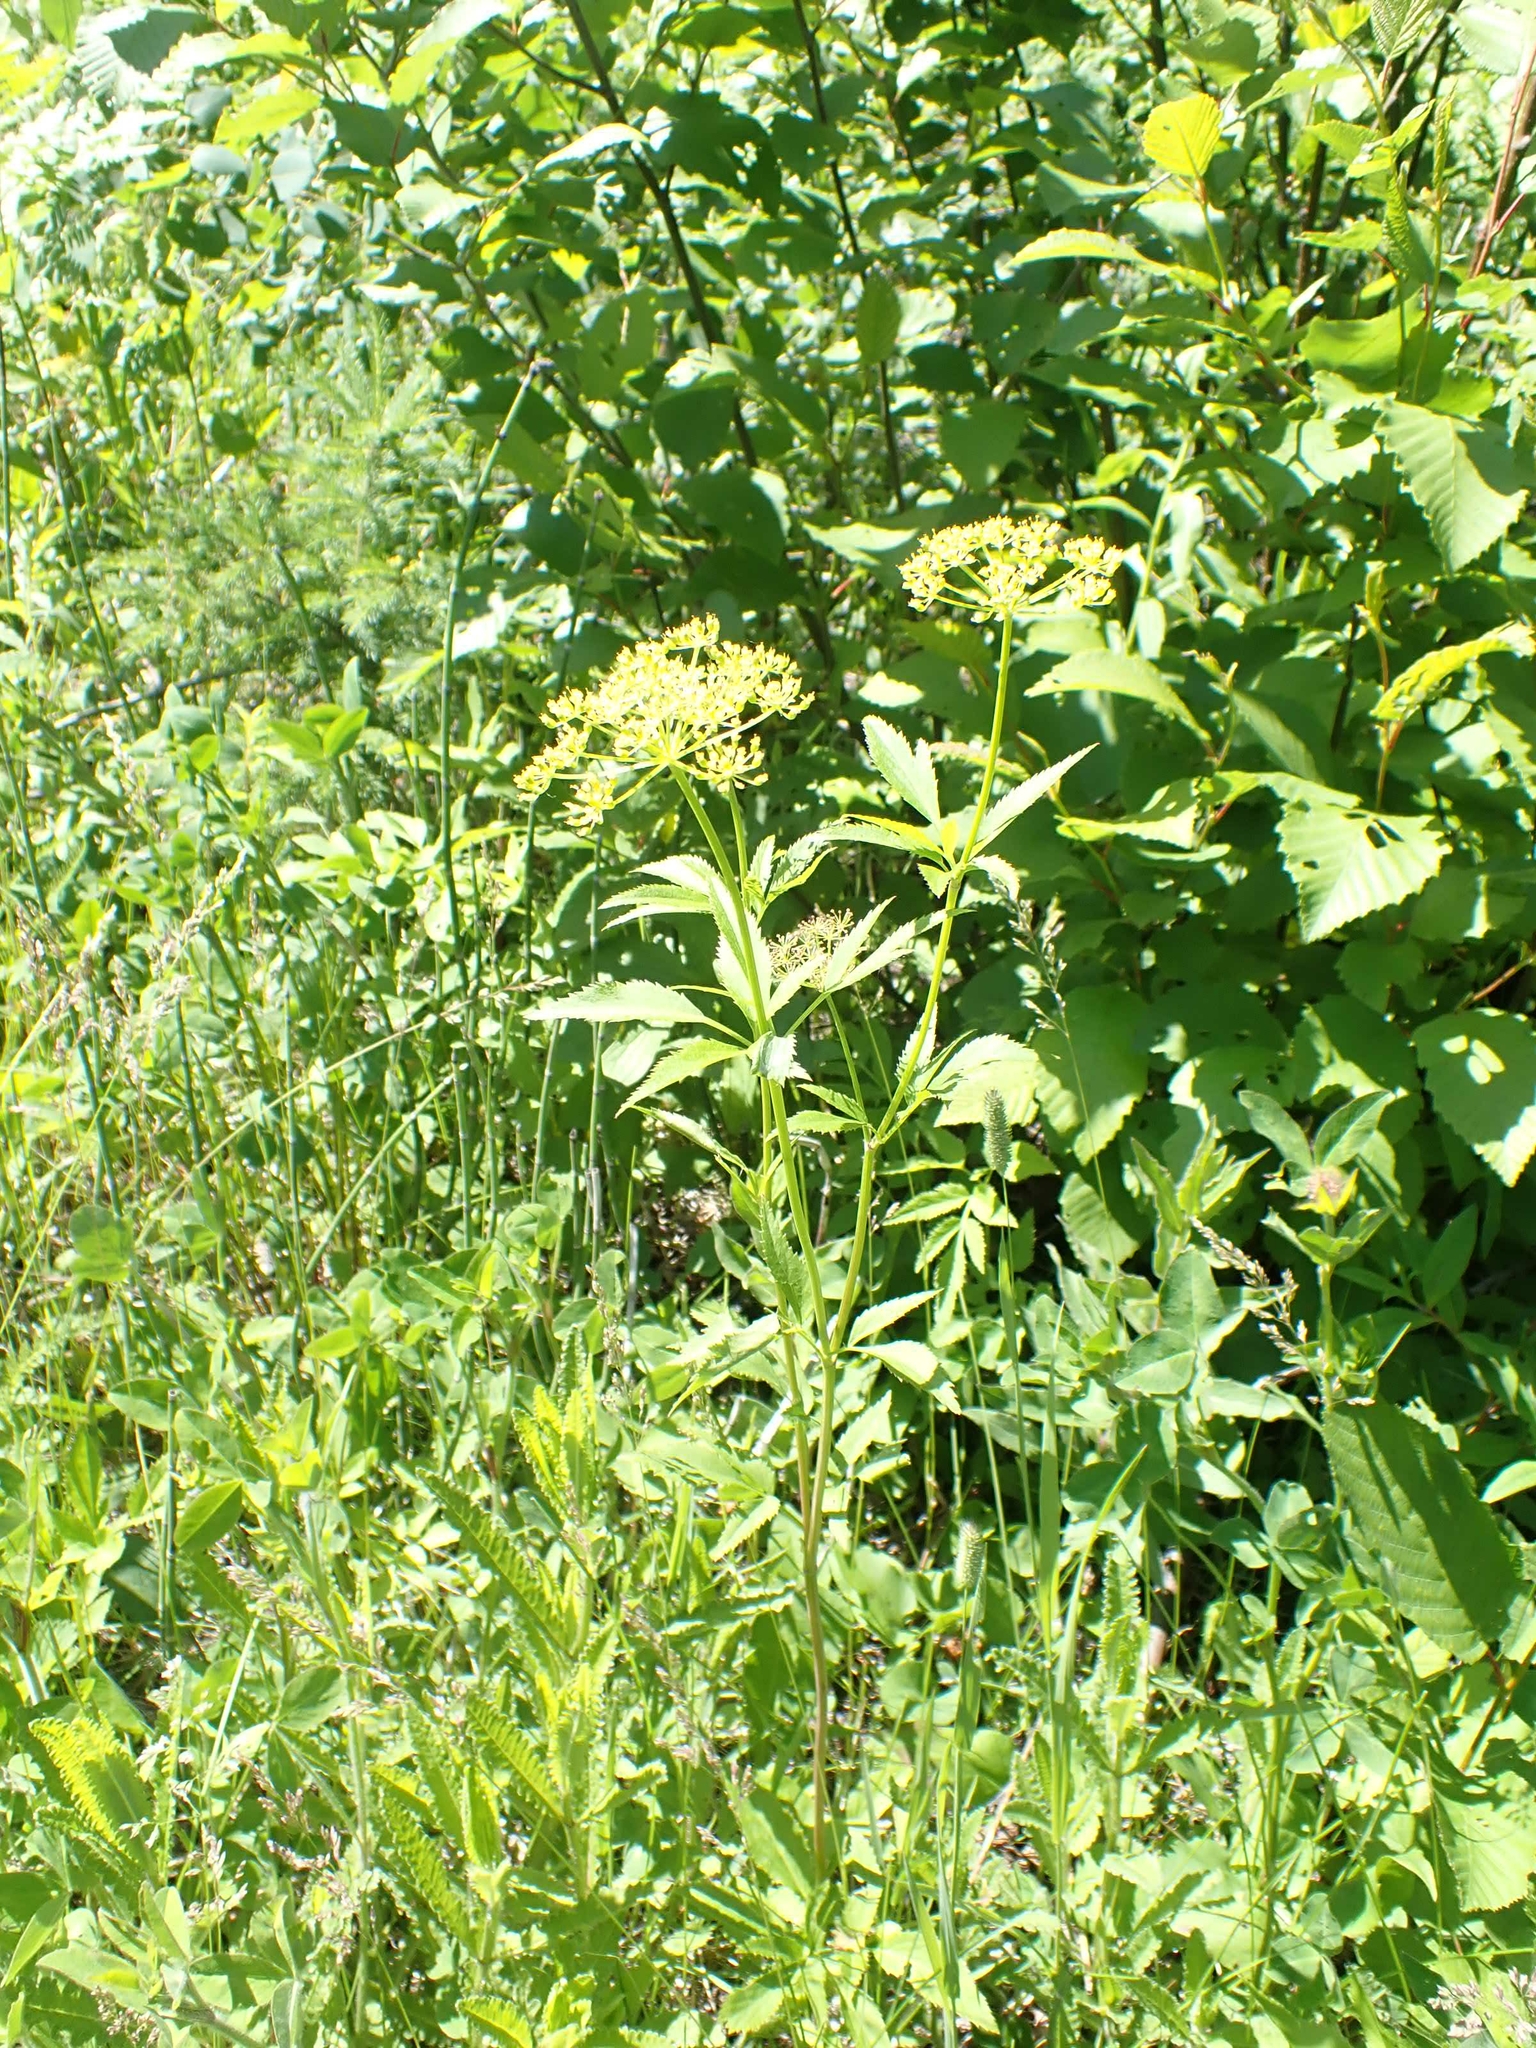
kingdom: Plantae
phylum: Tracheophyta
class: Magnoliopsida
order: Apiales
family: Apiaceae
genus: Zizia
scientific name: Zizia aurea
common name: Golden alexanders
